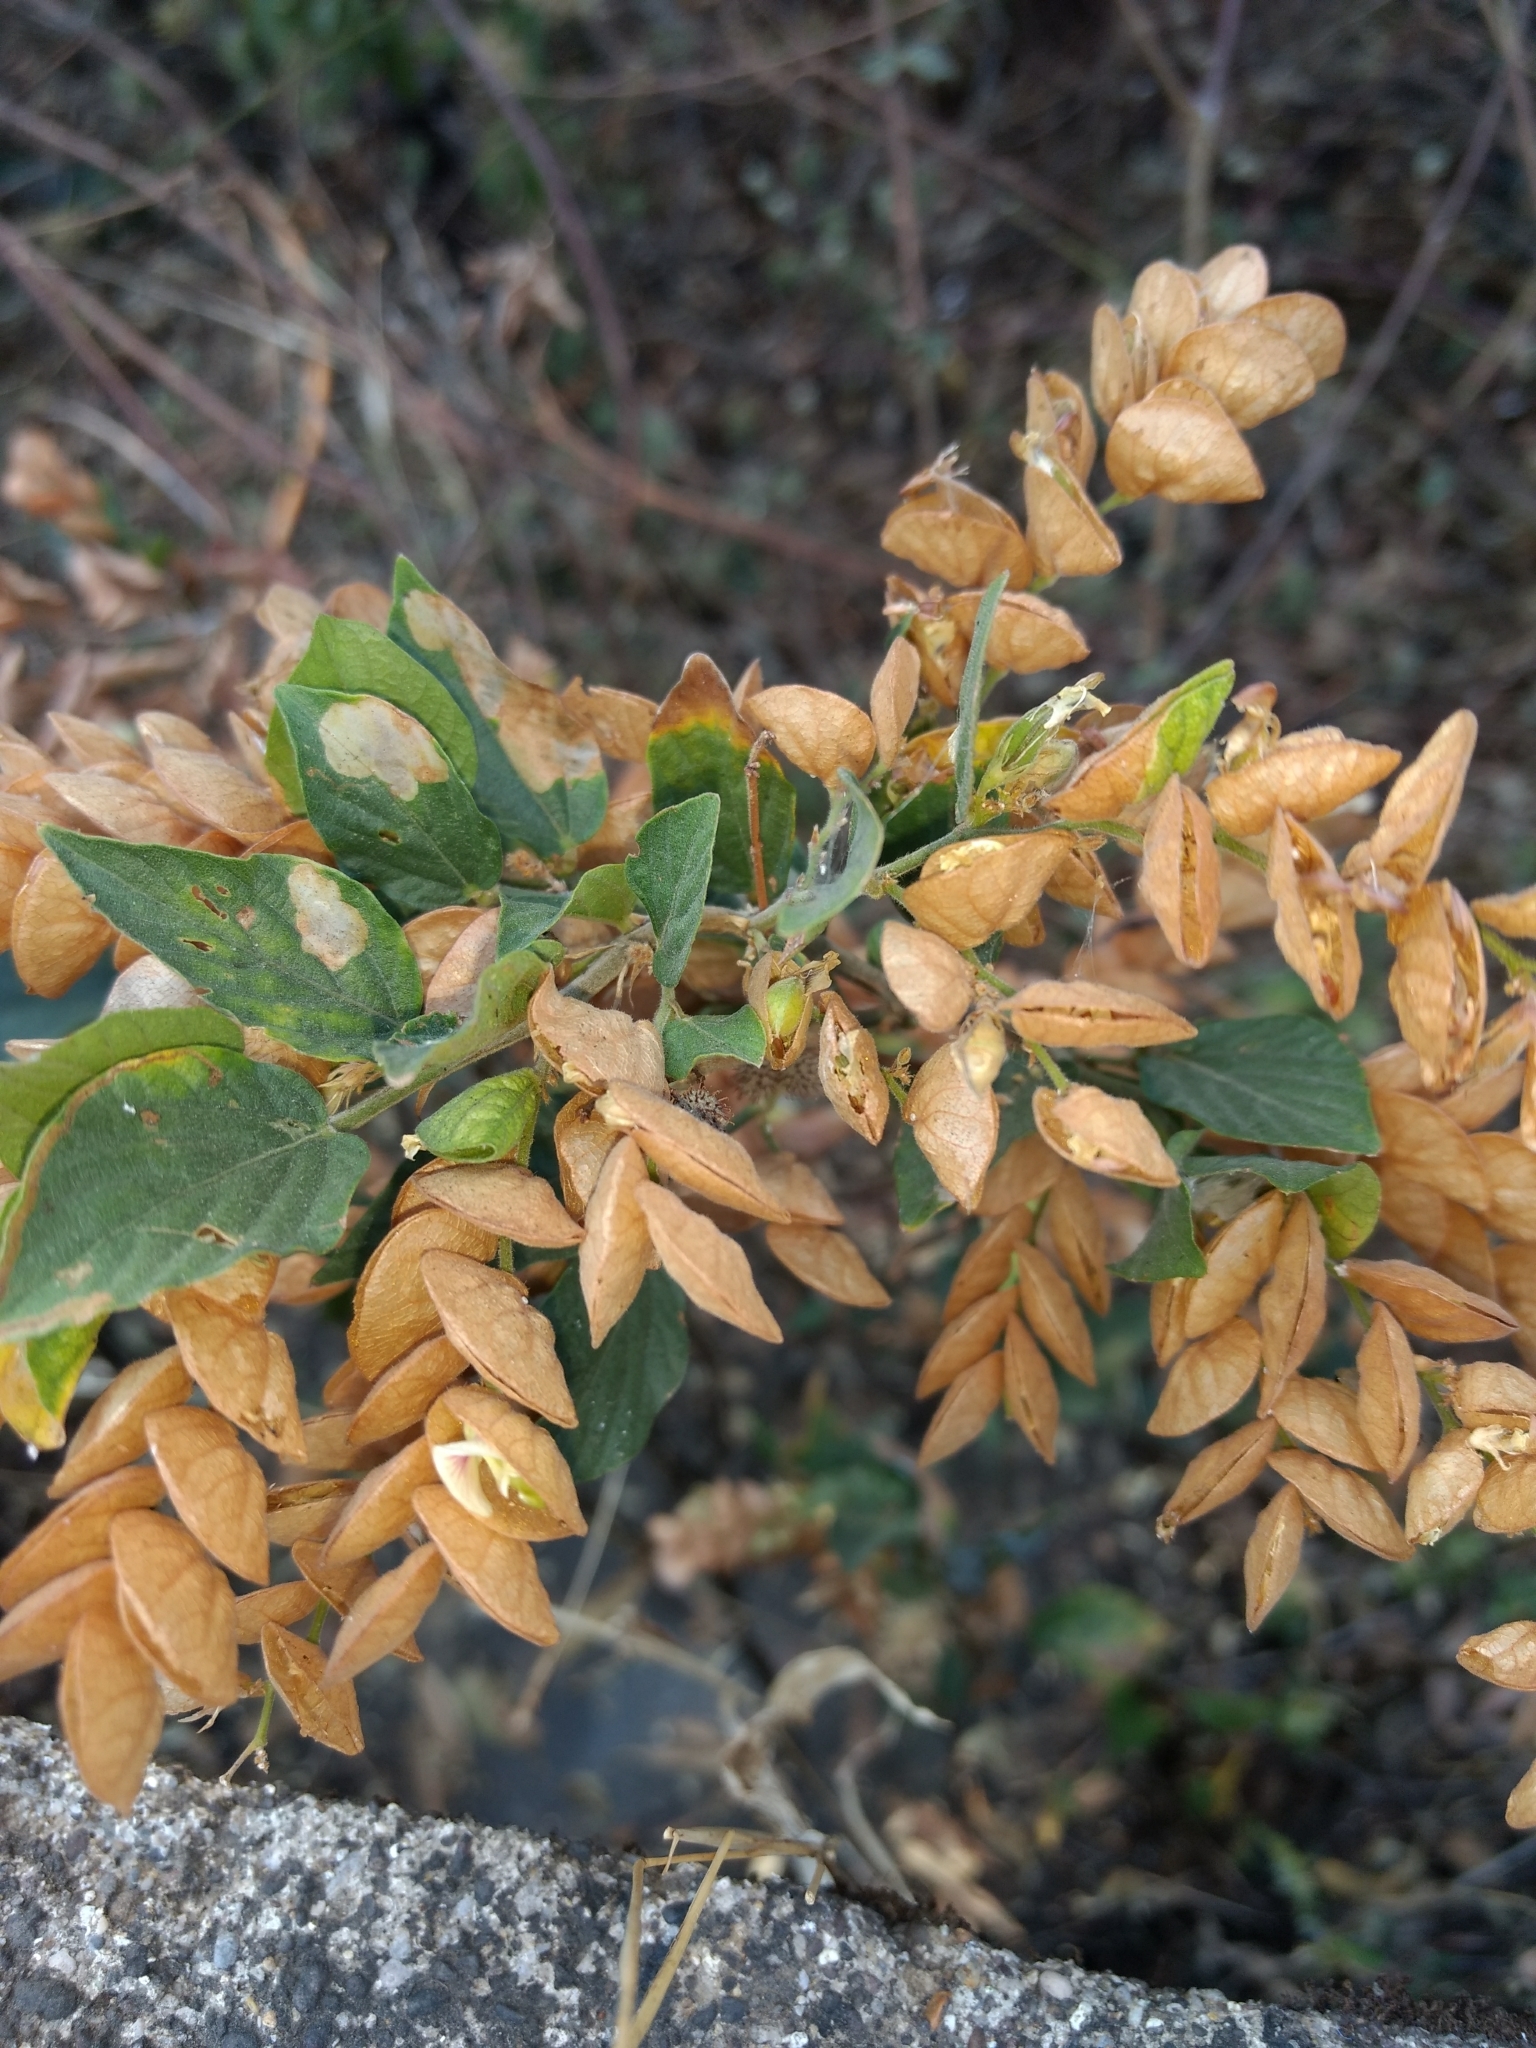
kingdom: Plantae
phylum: Tracheophyta
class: Magnoliopsida
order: Fabales
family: Fabaceae
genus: Flemingia
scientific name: Flemingia strobilifera
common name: Wild hops
